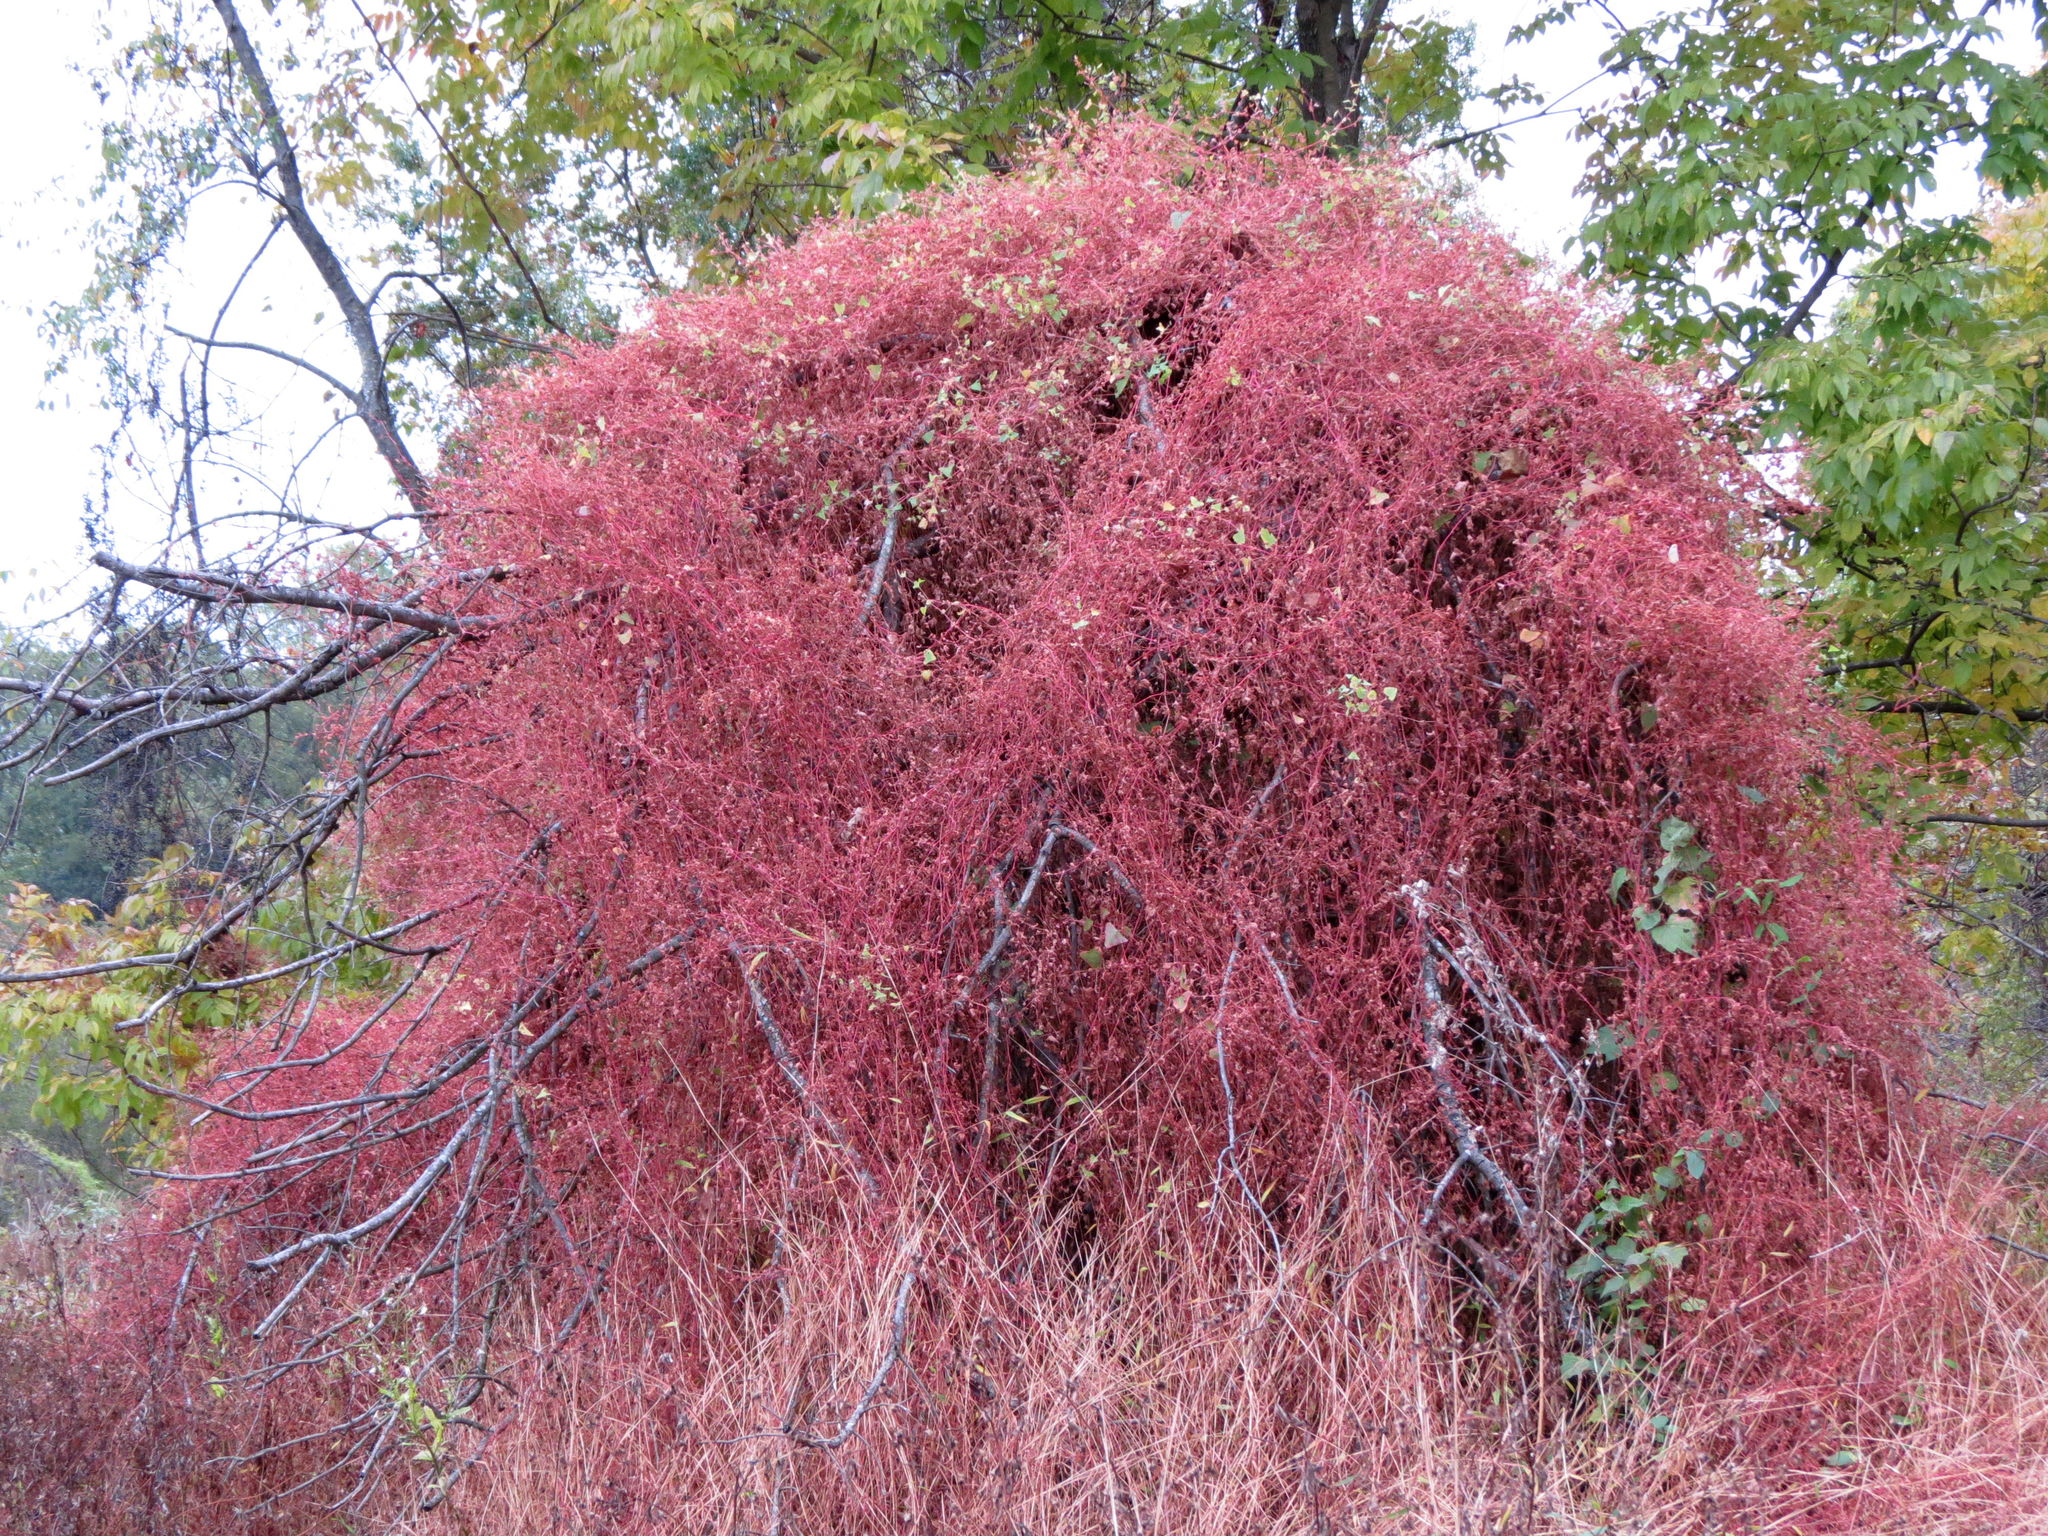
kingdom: Plantae
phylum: Tracheophyta
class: Magnoliopsida
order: Caryophyllales
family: Polygonaceae
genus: Persicaria
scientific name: Persicaria perfoliata
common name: Asiatic tearthumb
